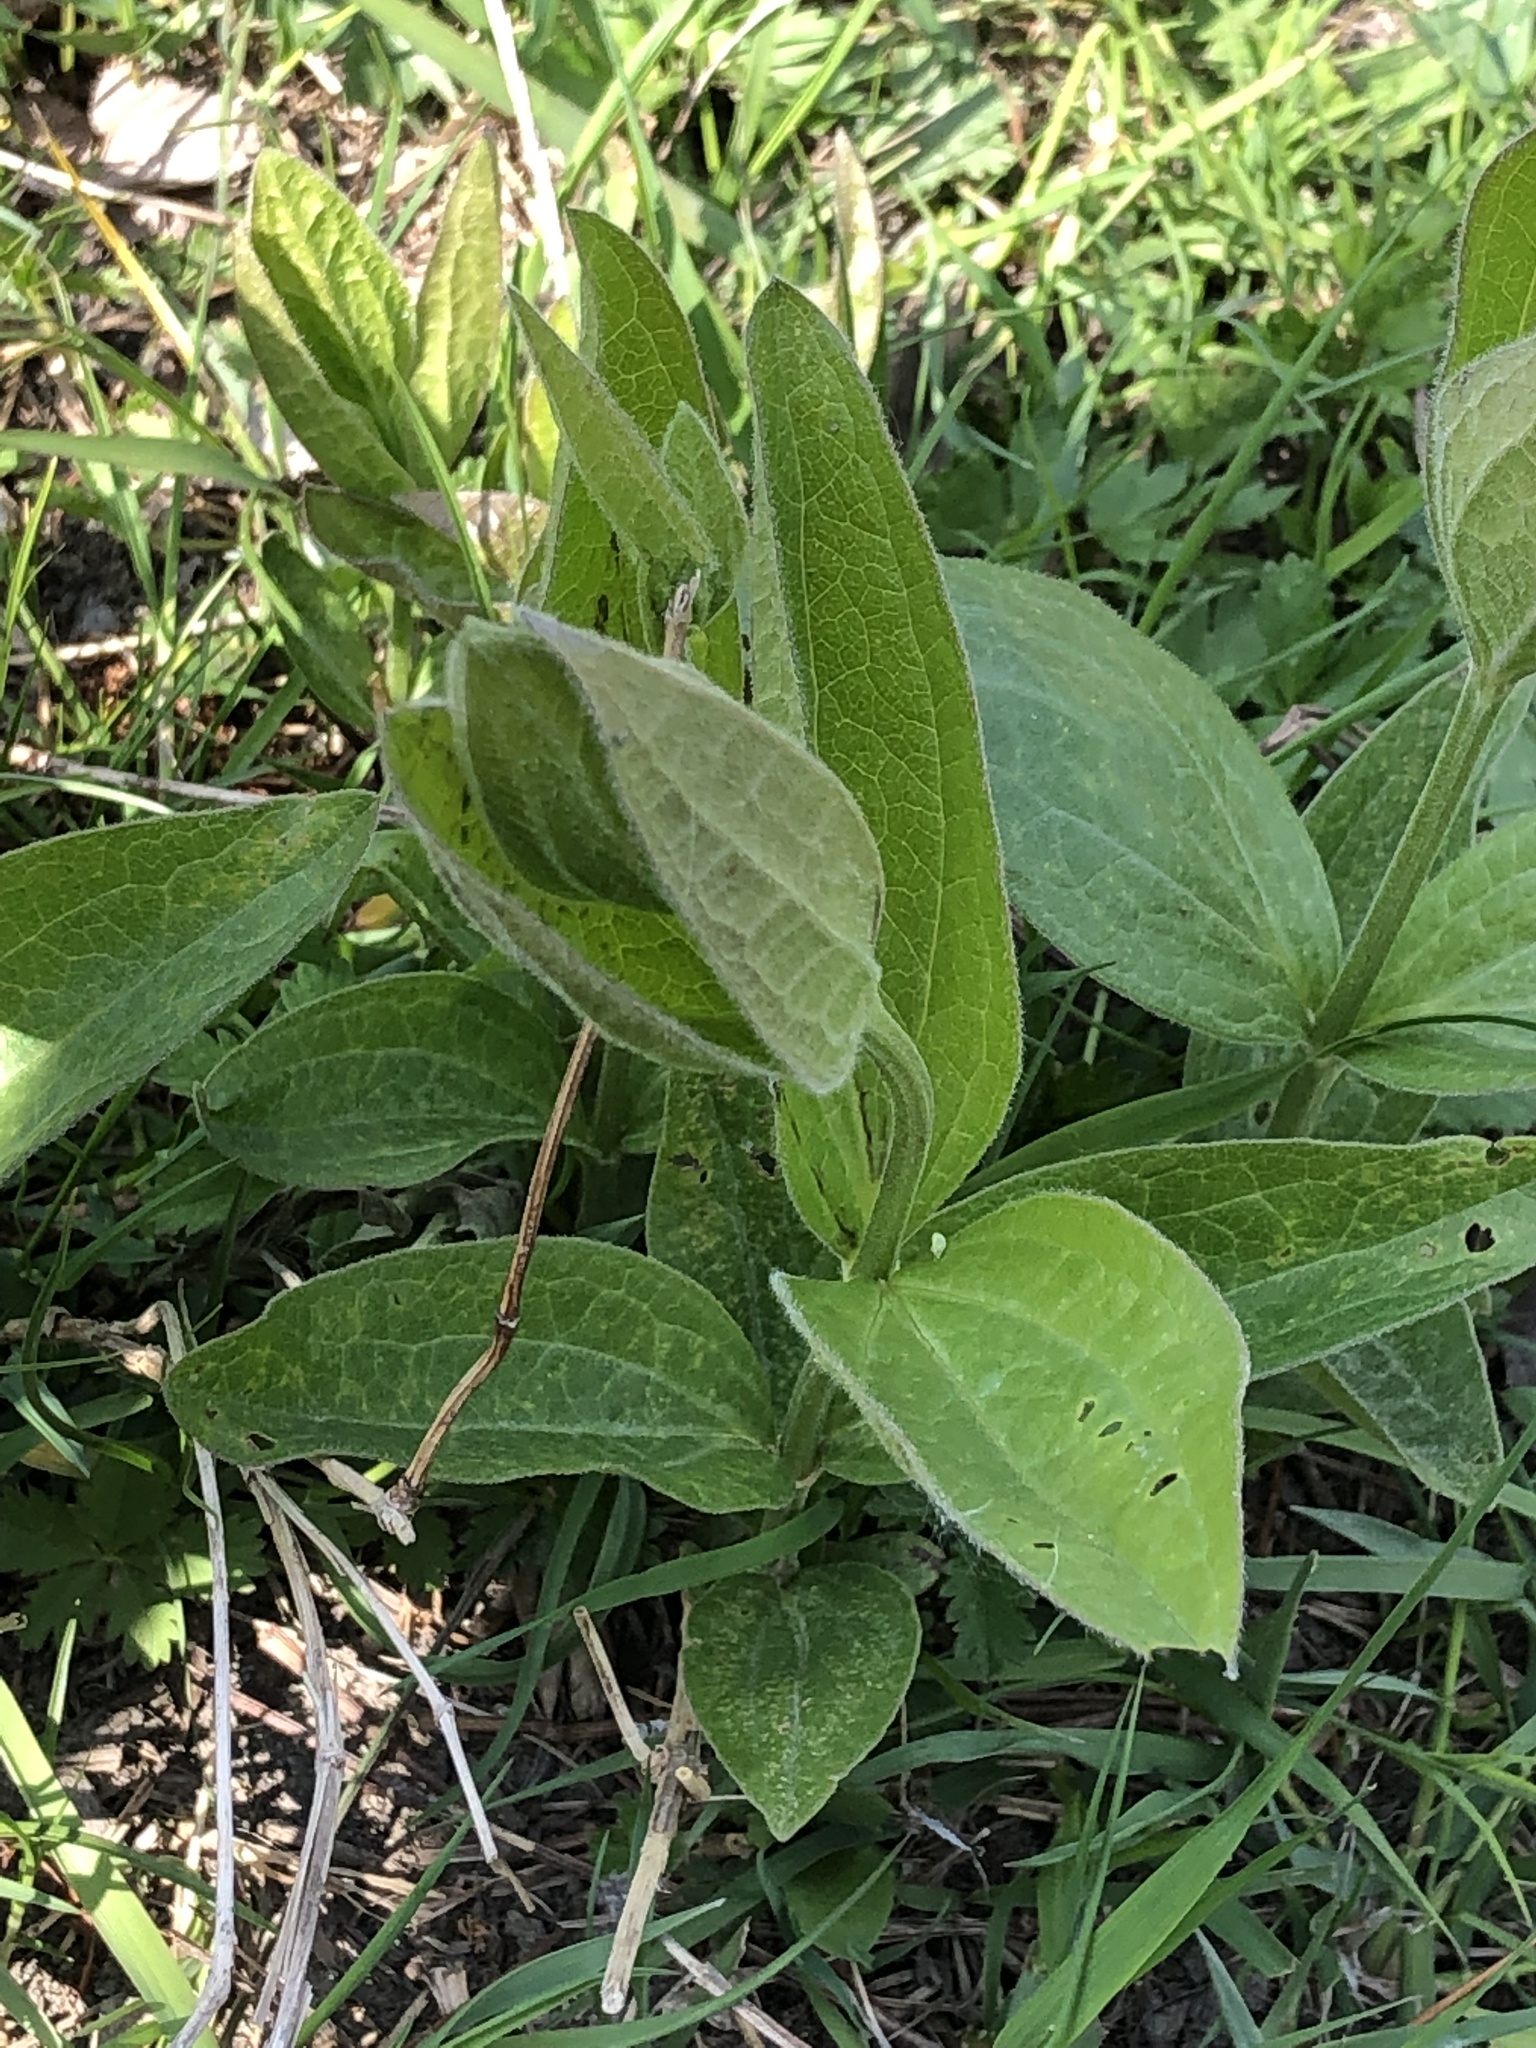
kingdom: Plantae
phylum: Tracheophyta
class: Magnoliopsida
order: Ranunculales
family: Ranunculaceae
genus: Clematis
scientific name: Clematis integrifolia
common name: Solitary clematis
